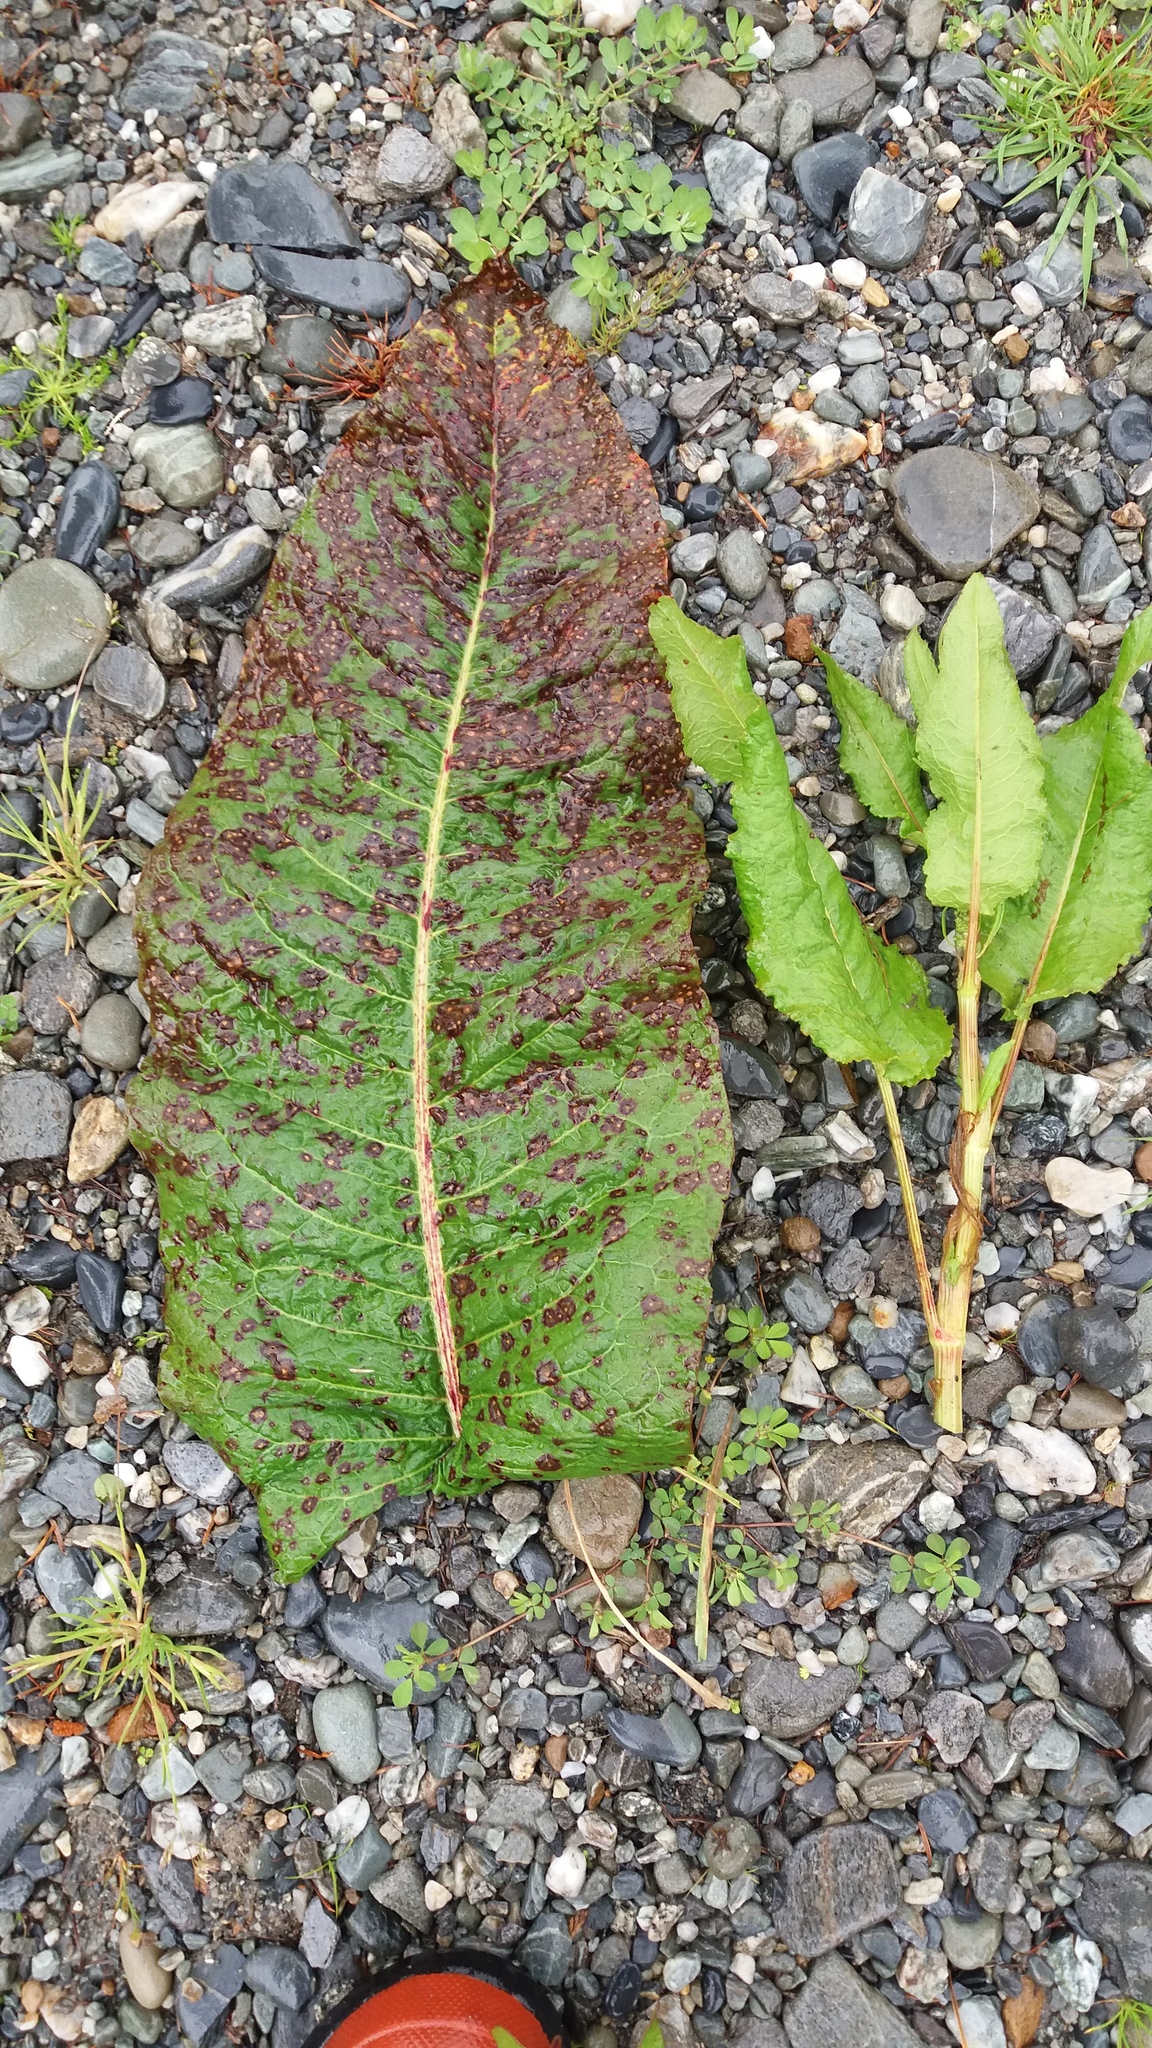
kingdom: Plantae
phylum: Tracheophyta
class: Magnoliopsida
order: Caryophyllales
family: Polygonaceae
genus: Rumex
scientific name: Rumex obtusifolius
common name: Bitter dock
